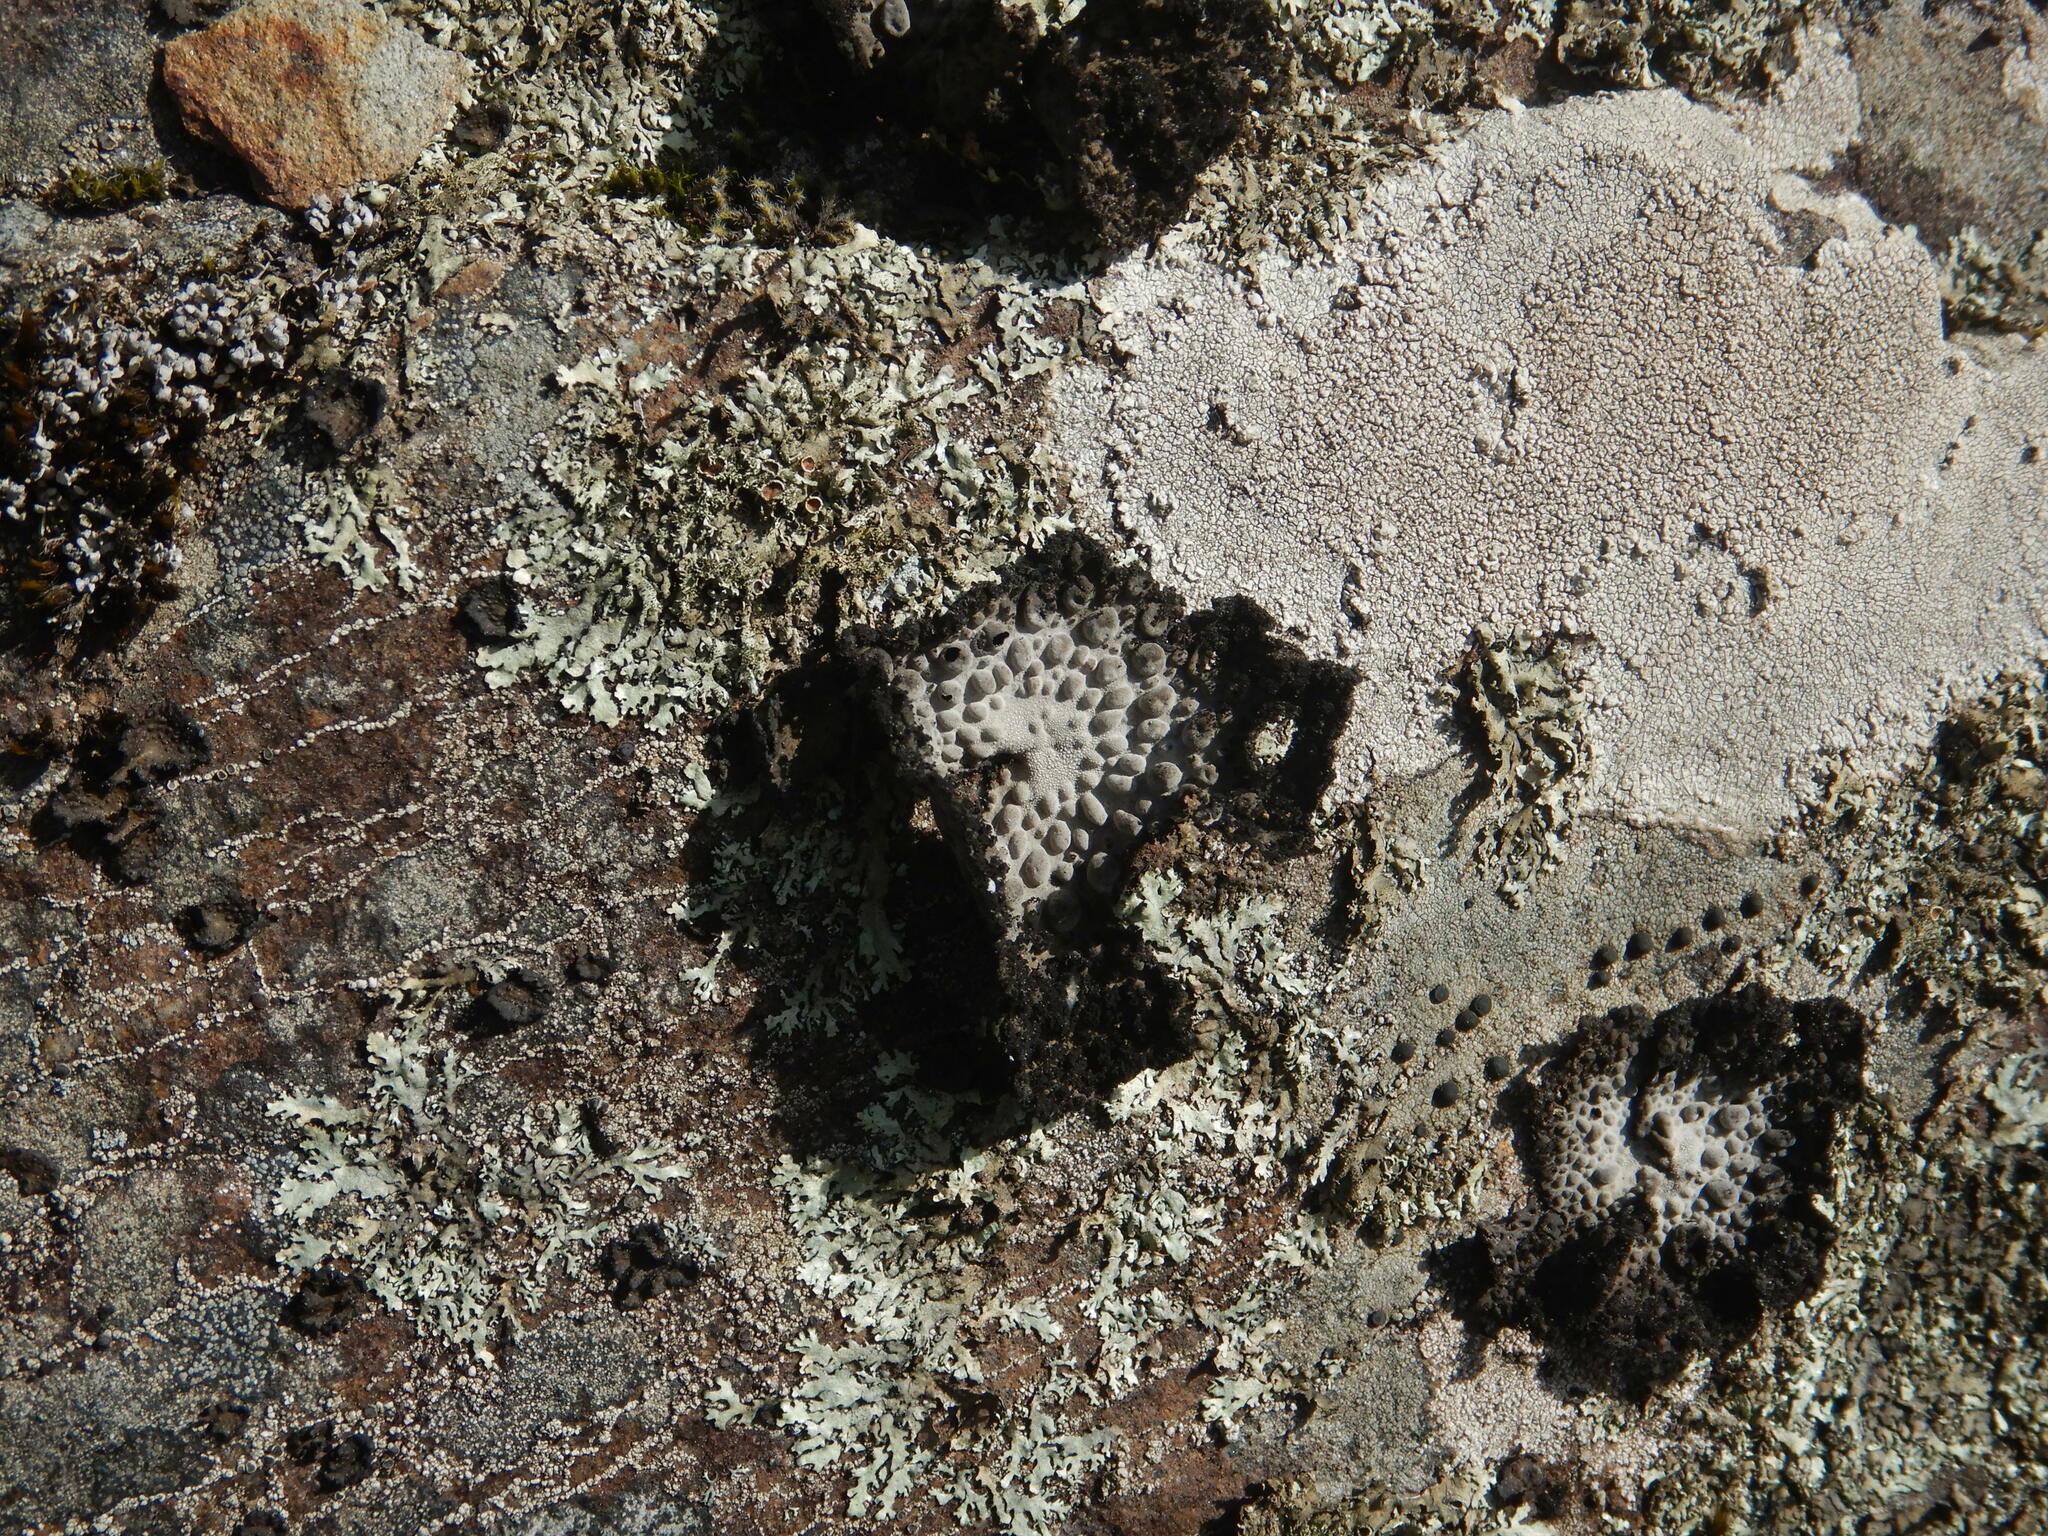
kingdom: Fungi
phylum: Ascomycota
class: Lecanoromycetes
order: Umbilicariales
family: Umbilicariaceae
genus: Lasallia
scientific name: Lasallia pustulata
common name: Blistered toadskin lichen
